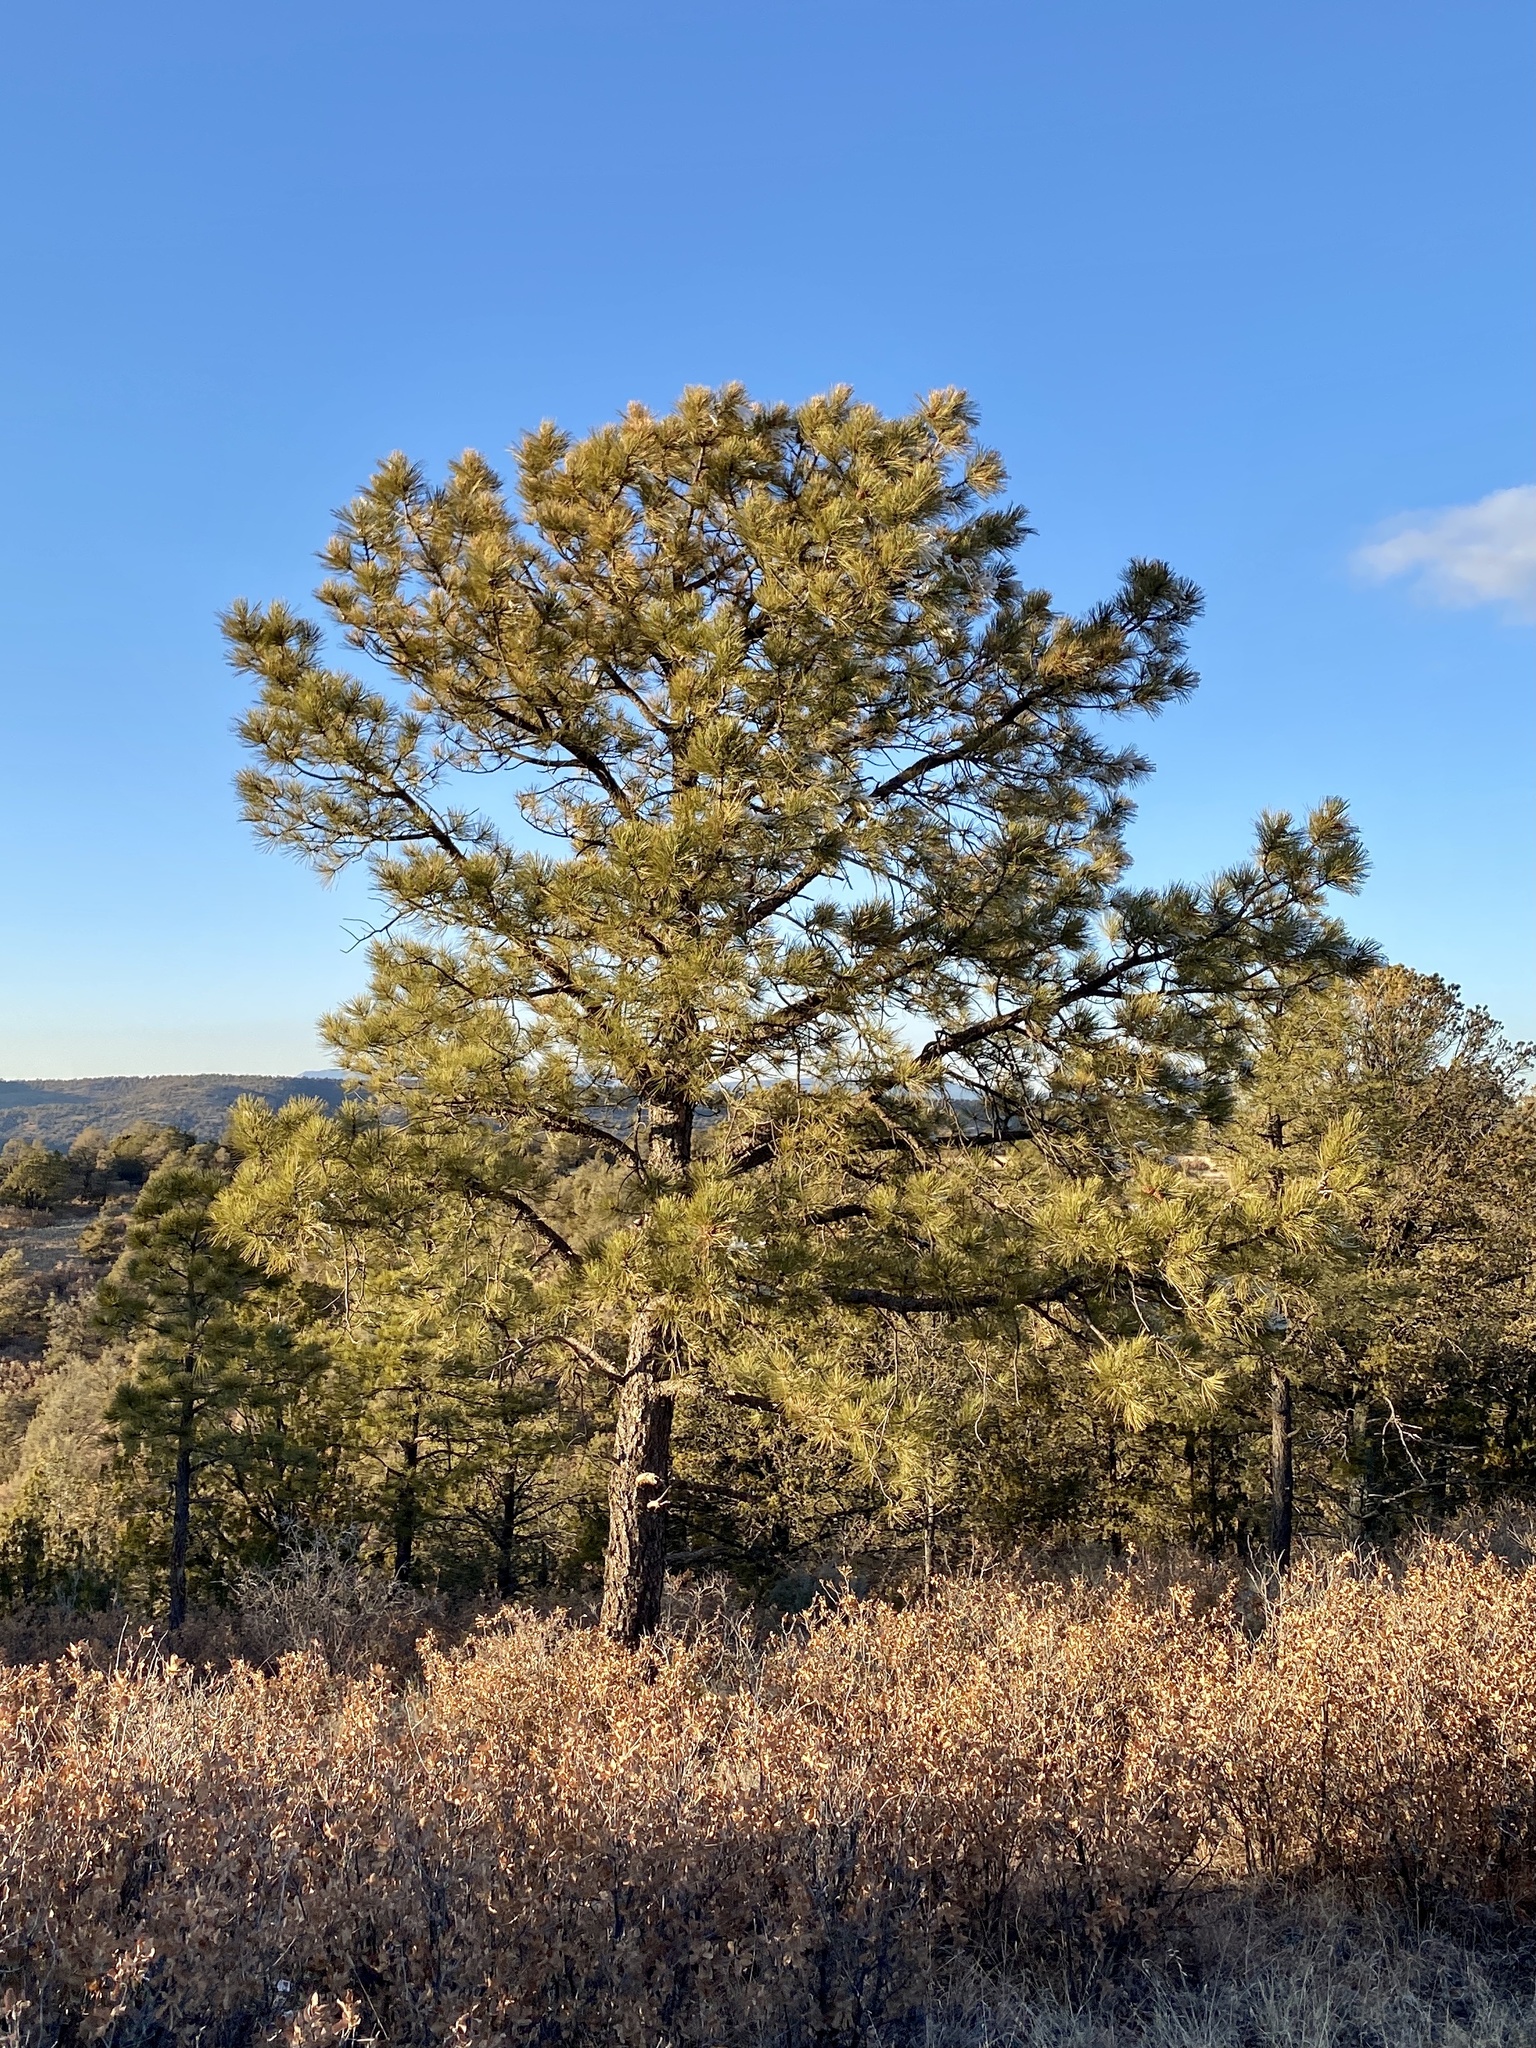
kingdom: Plantae
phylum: Tracheophyta
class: Pinopsida
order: Pinales
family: Pinaceae
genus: Pinus
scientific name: Pinus ponderosa
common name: Western yellow-pine
